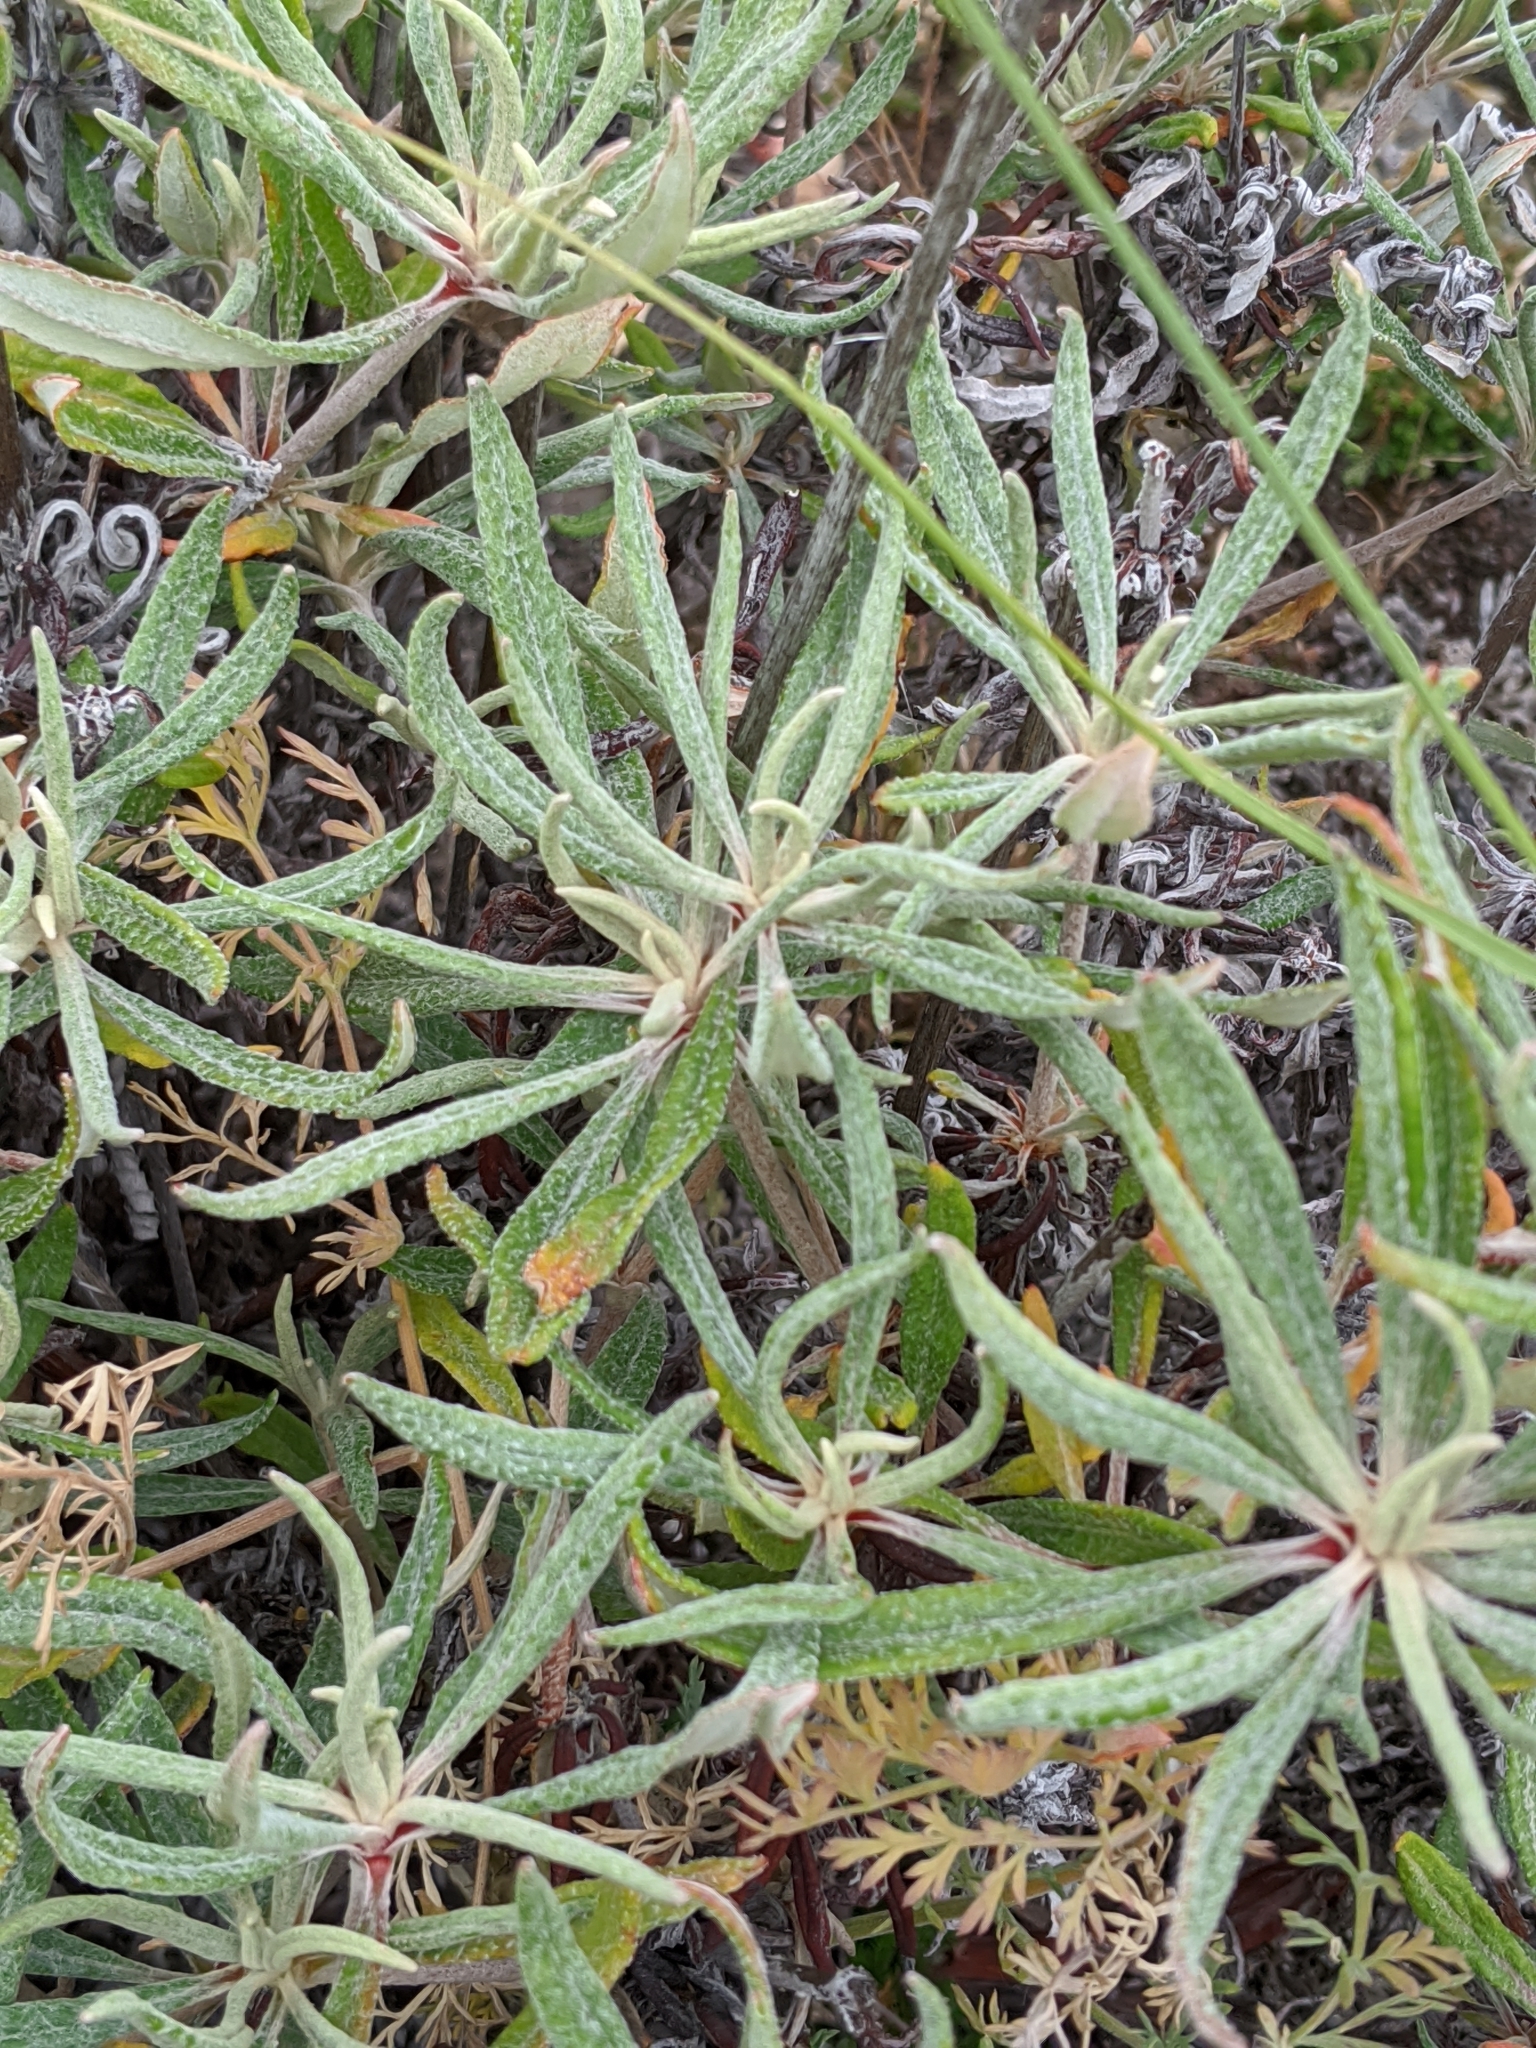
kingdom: Plantae
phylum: Tracheophyta
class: Magnoliopsida
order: Caryophyllales
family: Polygonaceae
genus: Eriogonum
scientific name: Eriogonum heracleoides
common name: Wyeth's buckwheat
